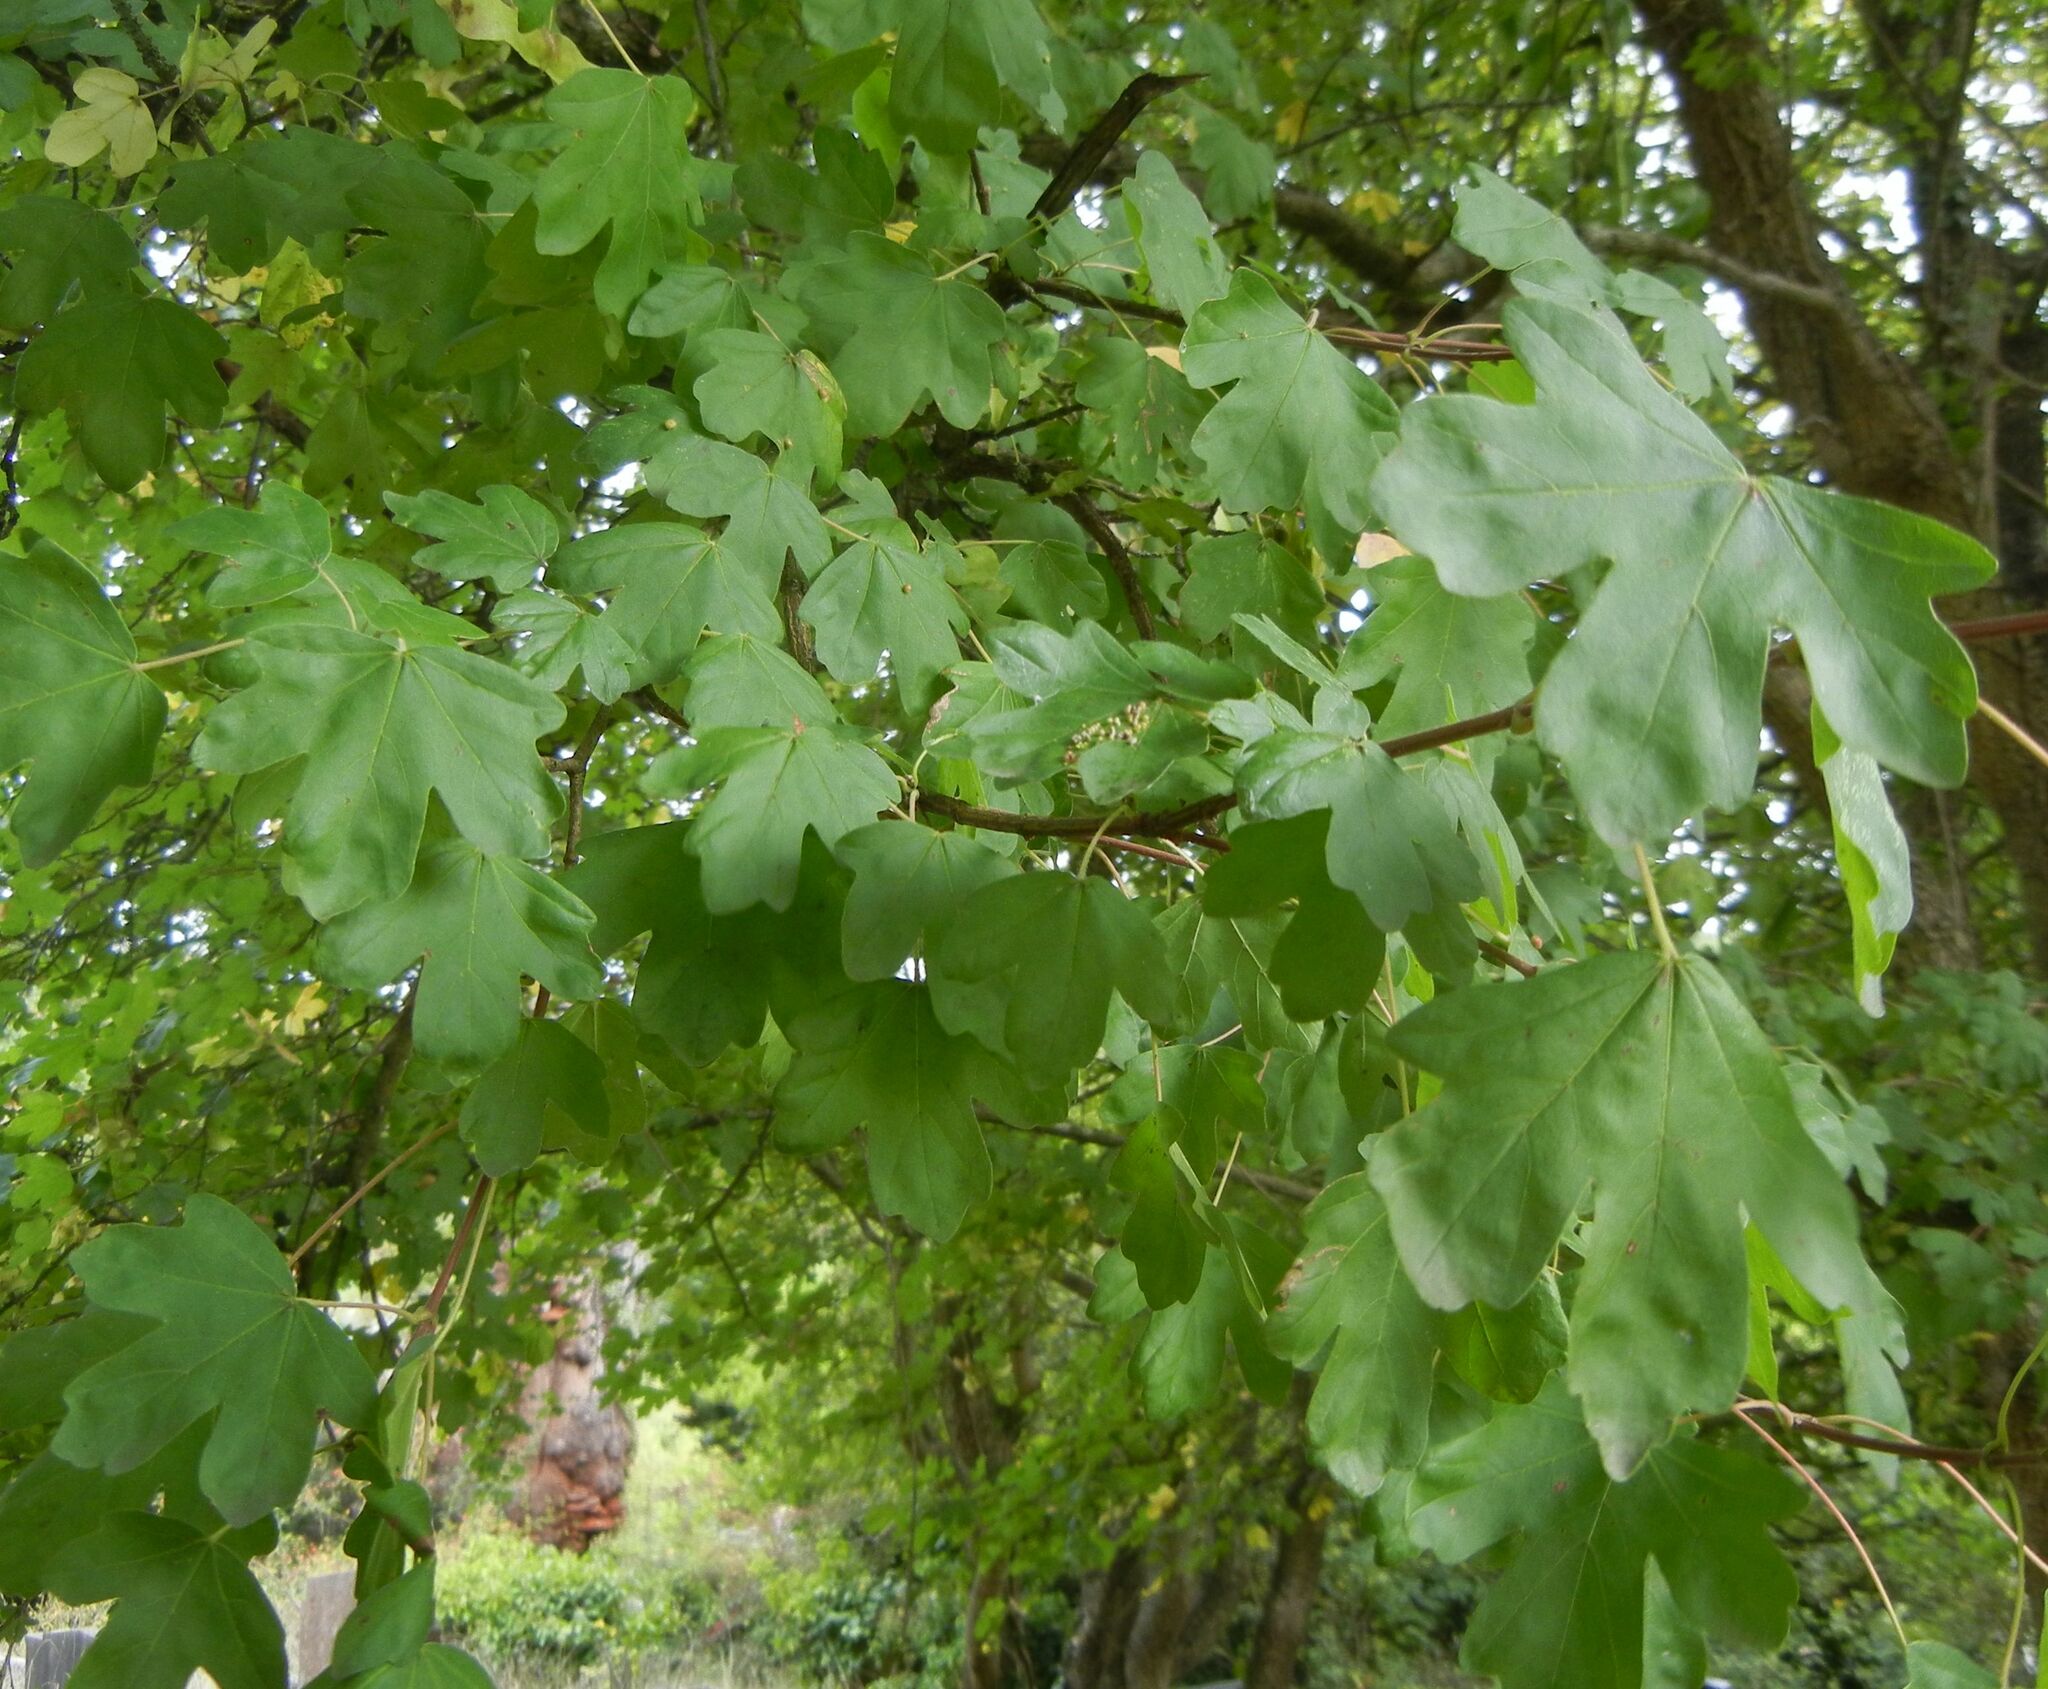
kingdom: Plantae
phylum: Tracheophyta
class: Magnoliopsida
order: Sapindales
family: Sapindaceae
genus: Acer
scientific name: Acer campestre
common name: Field maple
